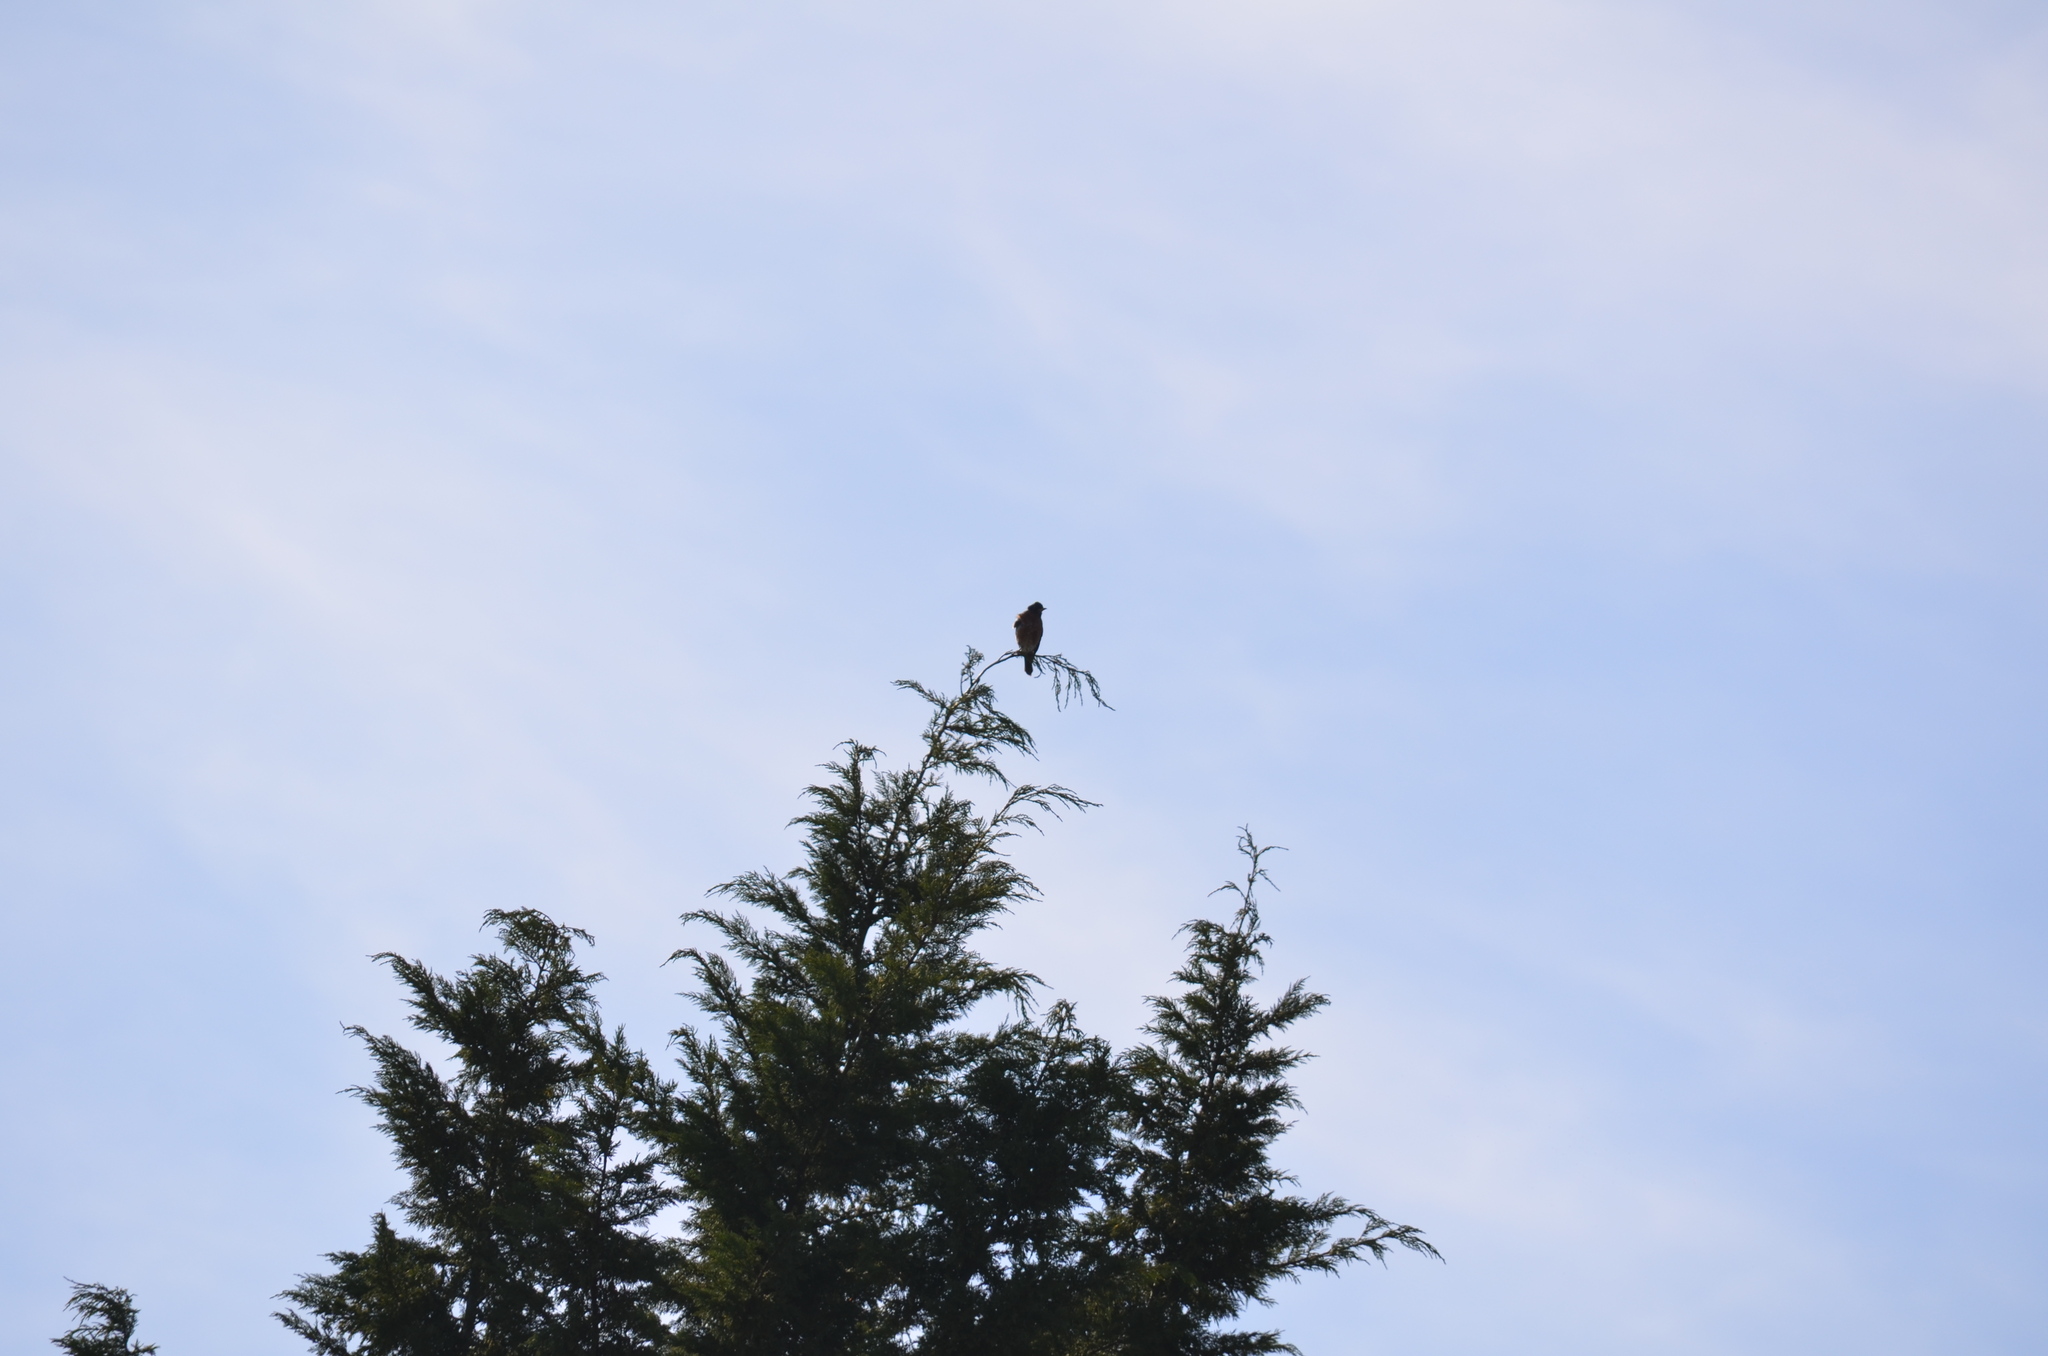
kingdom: Animalia
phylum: Chordata
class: Aves
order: Passeriformes
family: Turdidae
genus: Turdus
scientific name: Turdus migratorius
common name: American robin
